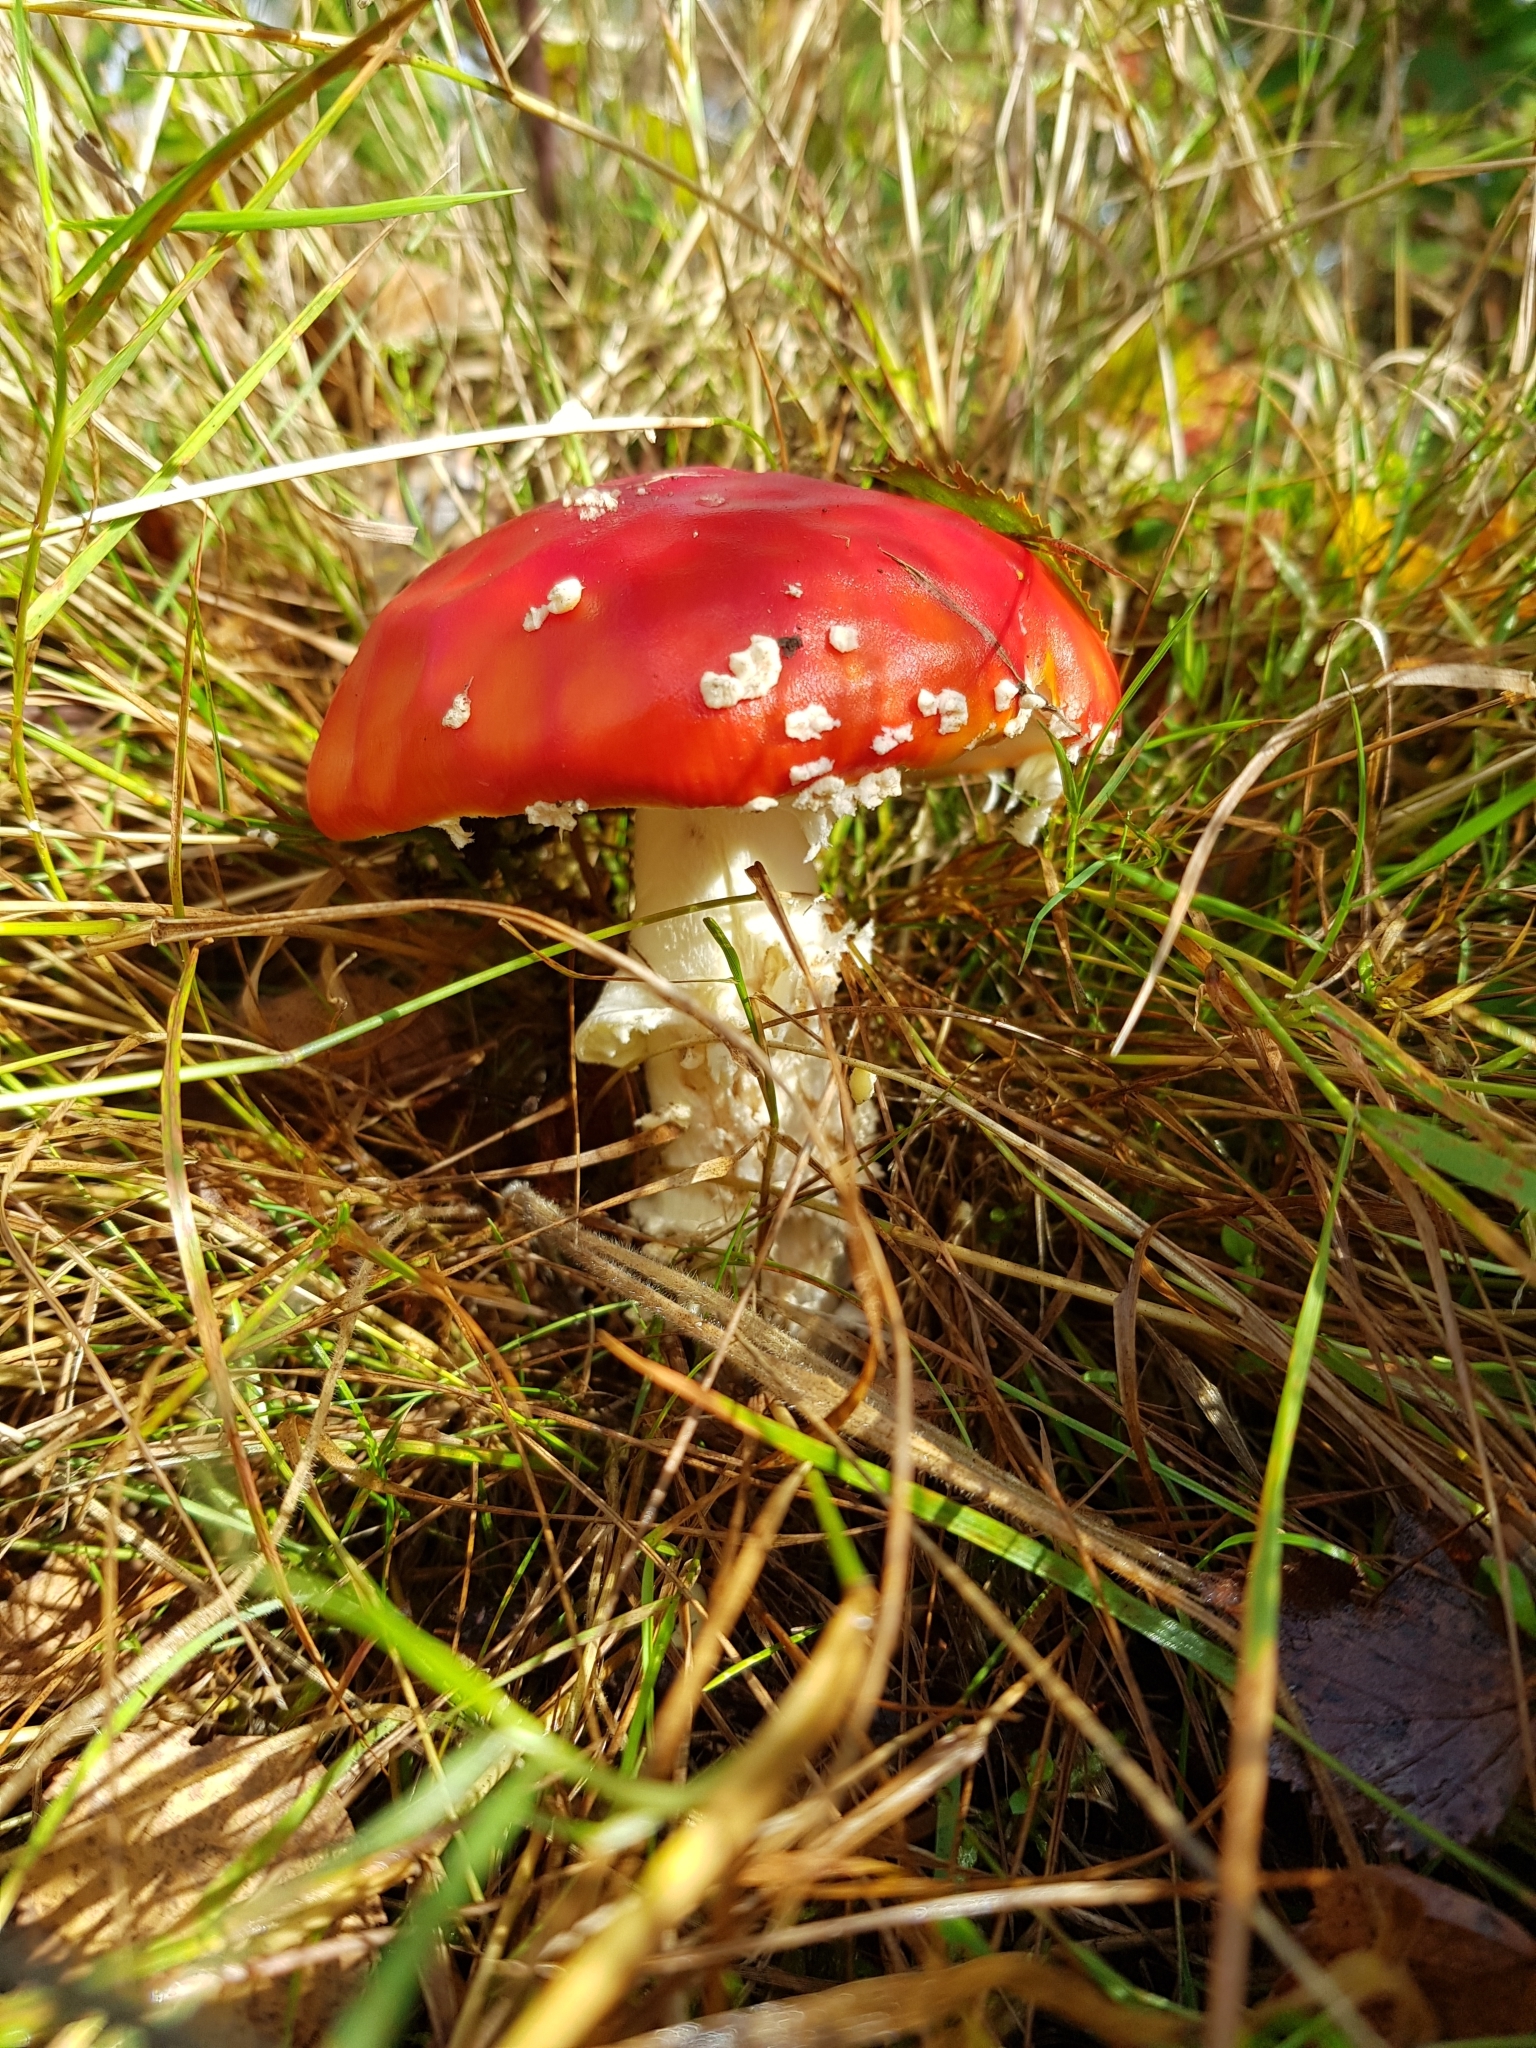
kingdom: Fungi
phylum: Basidiomycota
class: Agaricomycetes
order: Agaricales
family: Amanitaceae
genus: Amanita
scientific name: Amanita muscaria
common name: Fly agaric
